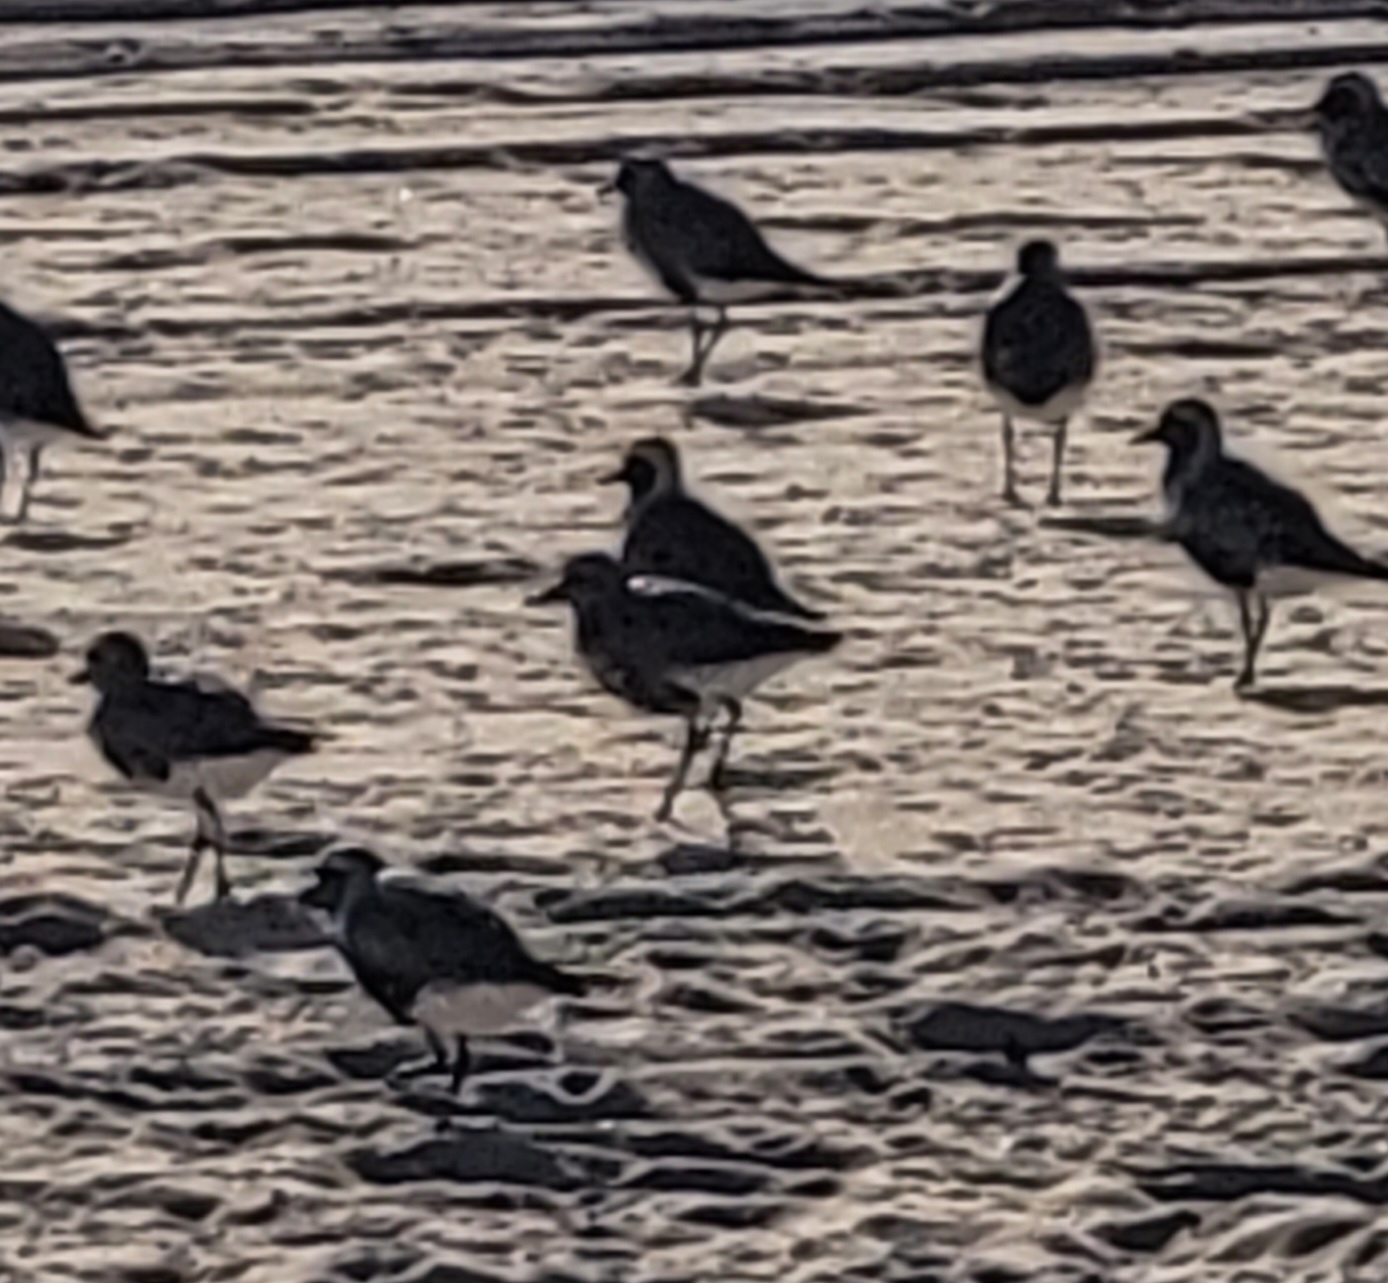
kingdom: Animalia
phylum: Chordata
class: Aves
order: Charadriiformes
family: Charadriidae
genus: Pluvialis
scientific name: Pluvialis squatarola
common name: Grey plover
